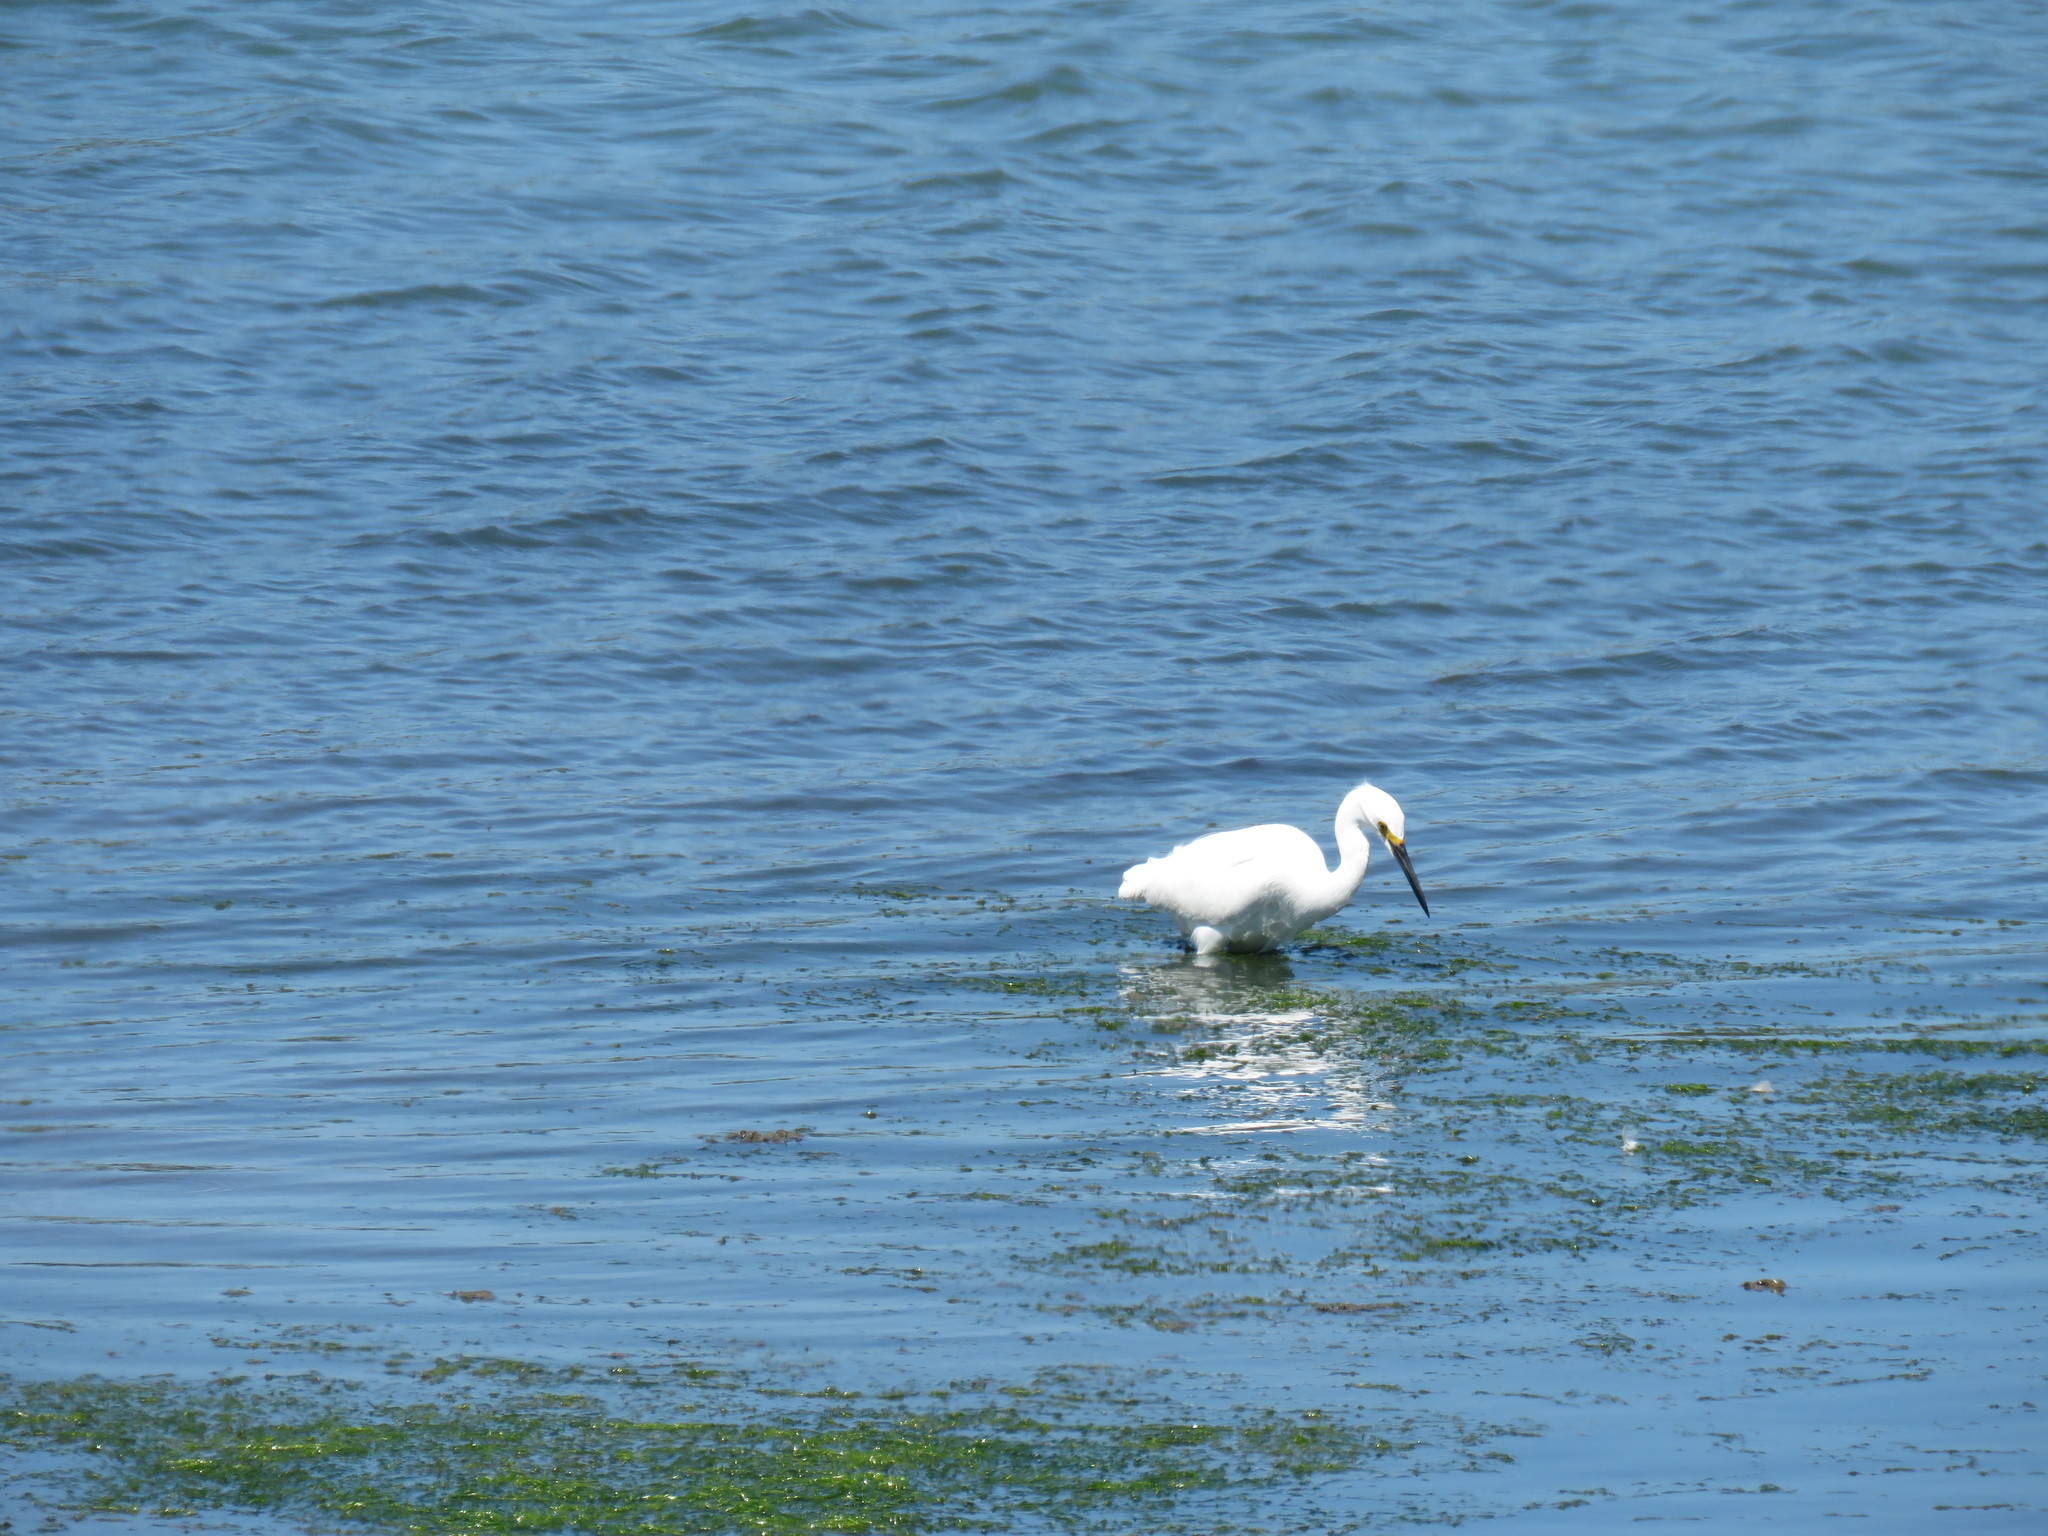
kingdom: Animalia
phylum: Chordata
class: Aves
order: Pelecaniformes
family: Ardeidae
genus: Egretta
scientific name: Egretta thula
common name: Snowy egret
